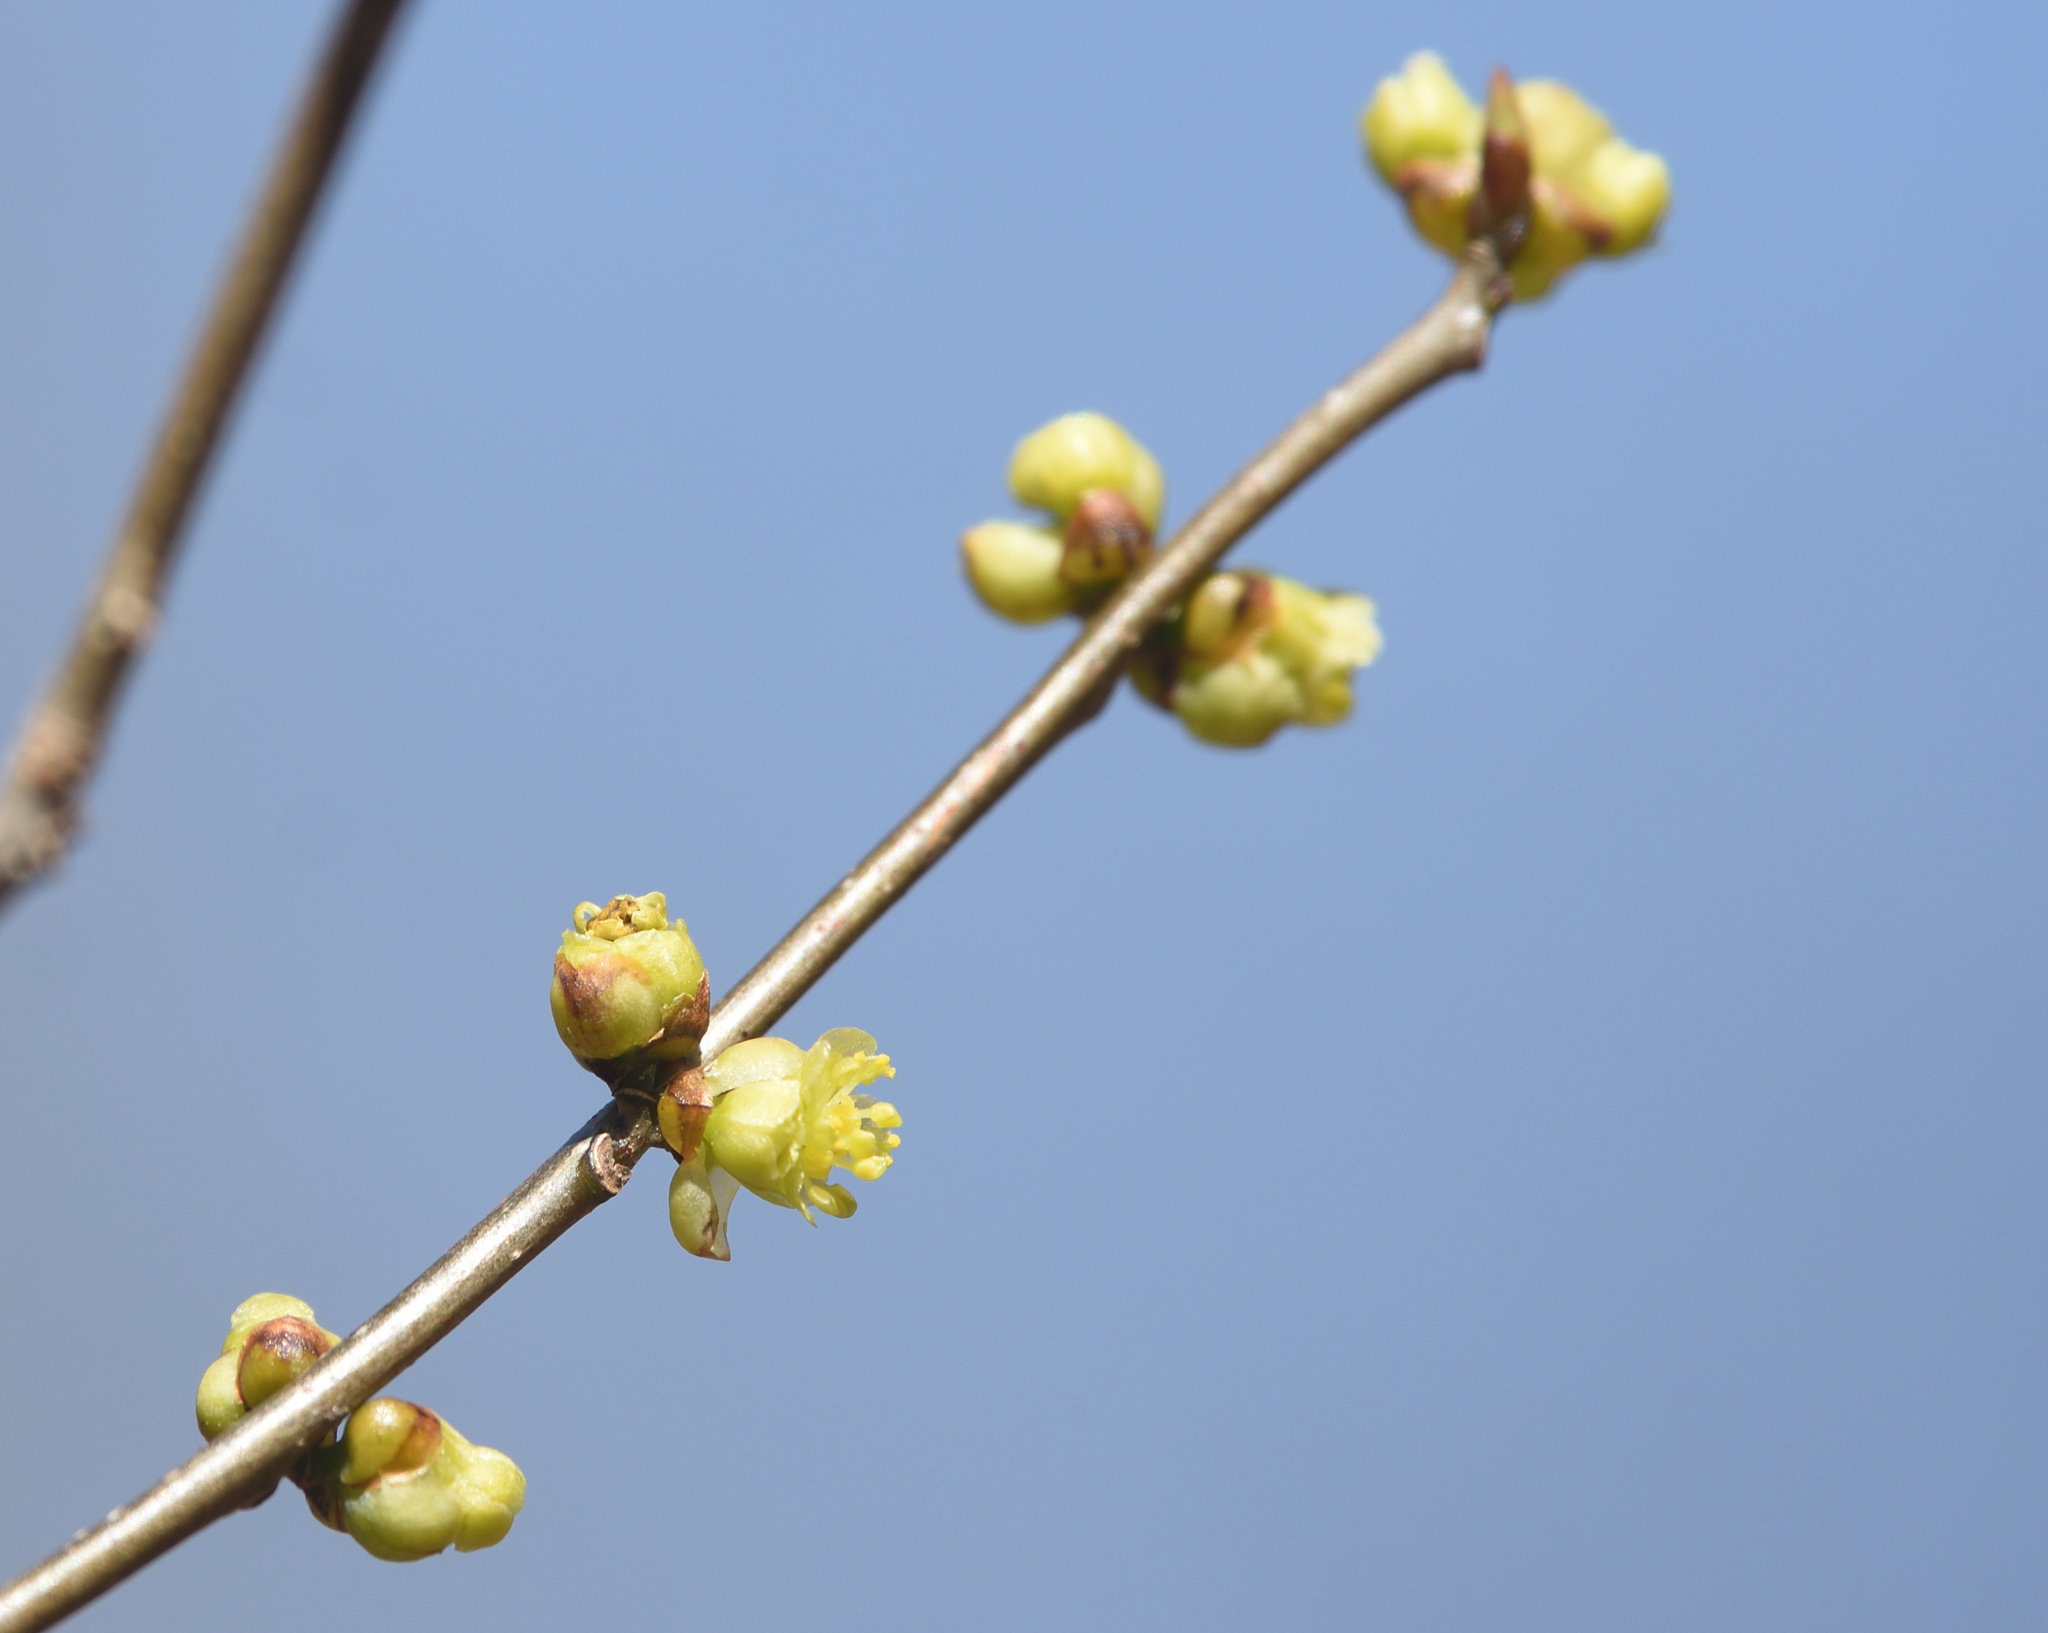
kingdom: Plantae
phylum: Tracheophyta
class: Magnoliopsida
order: Laurales
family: Lauraceae
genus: Lindera
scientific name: Lindera benzoin
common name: Spicebush
